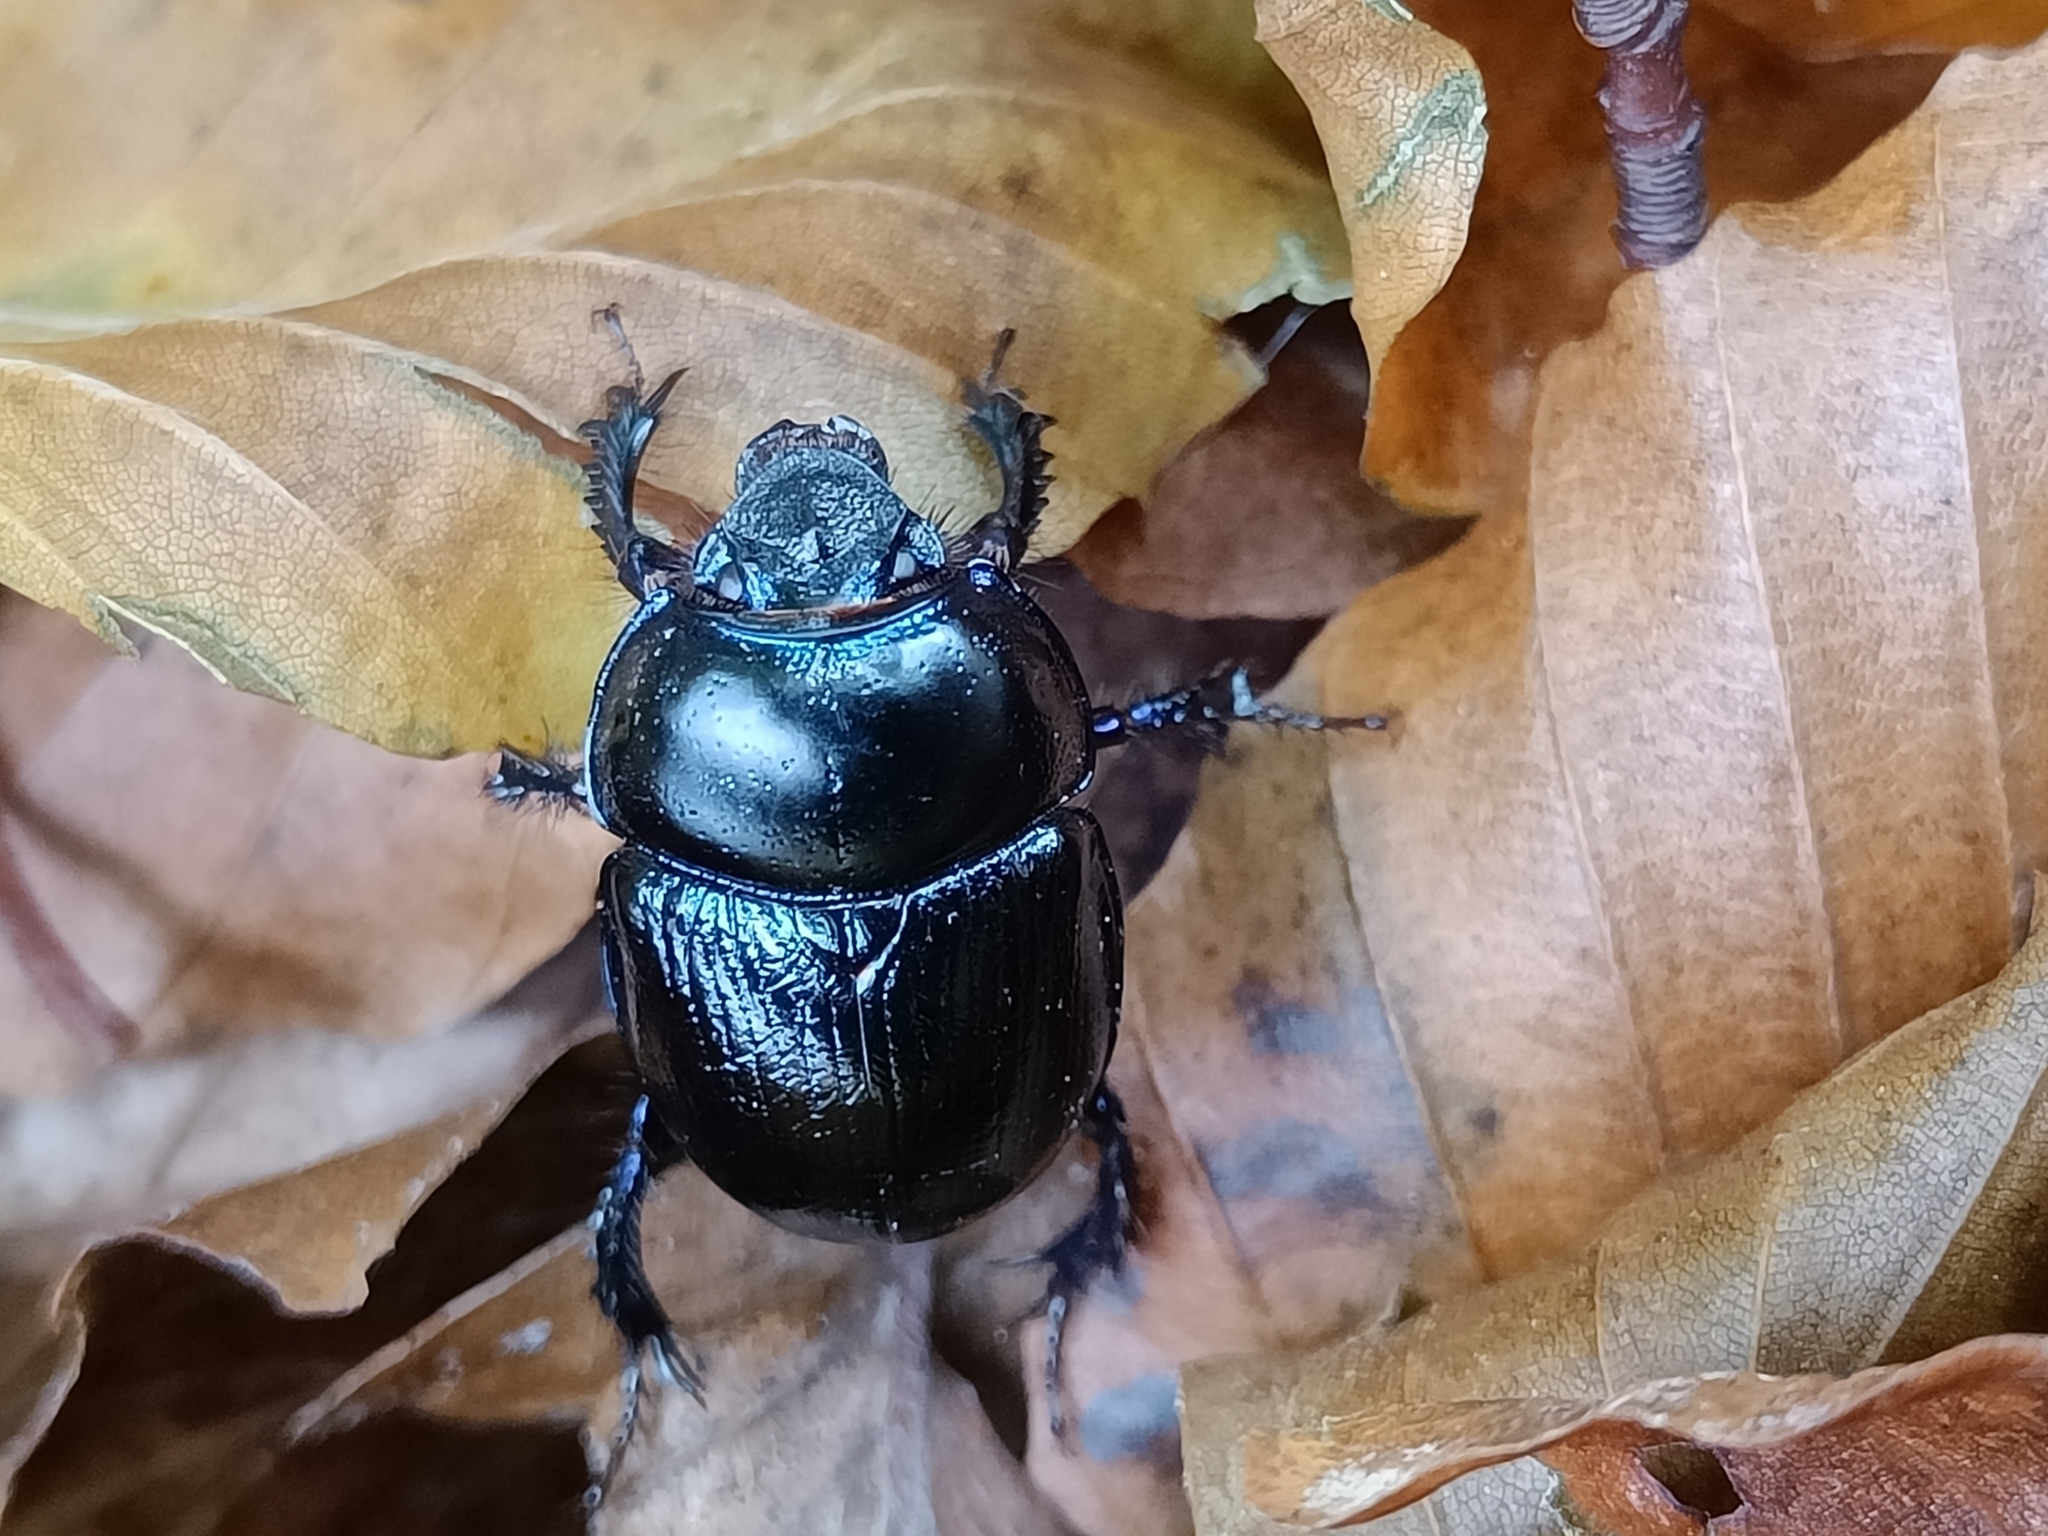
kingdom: Animalia
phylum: Arthropoda
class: Insecta
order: Coleoptera
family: Geotrupidae
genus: Anoplotrupes
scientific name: Anoplotrupes stercorosus
